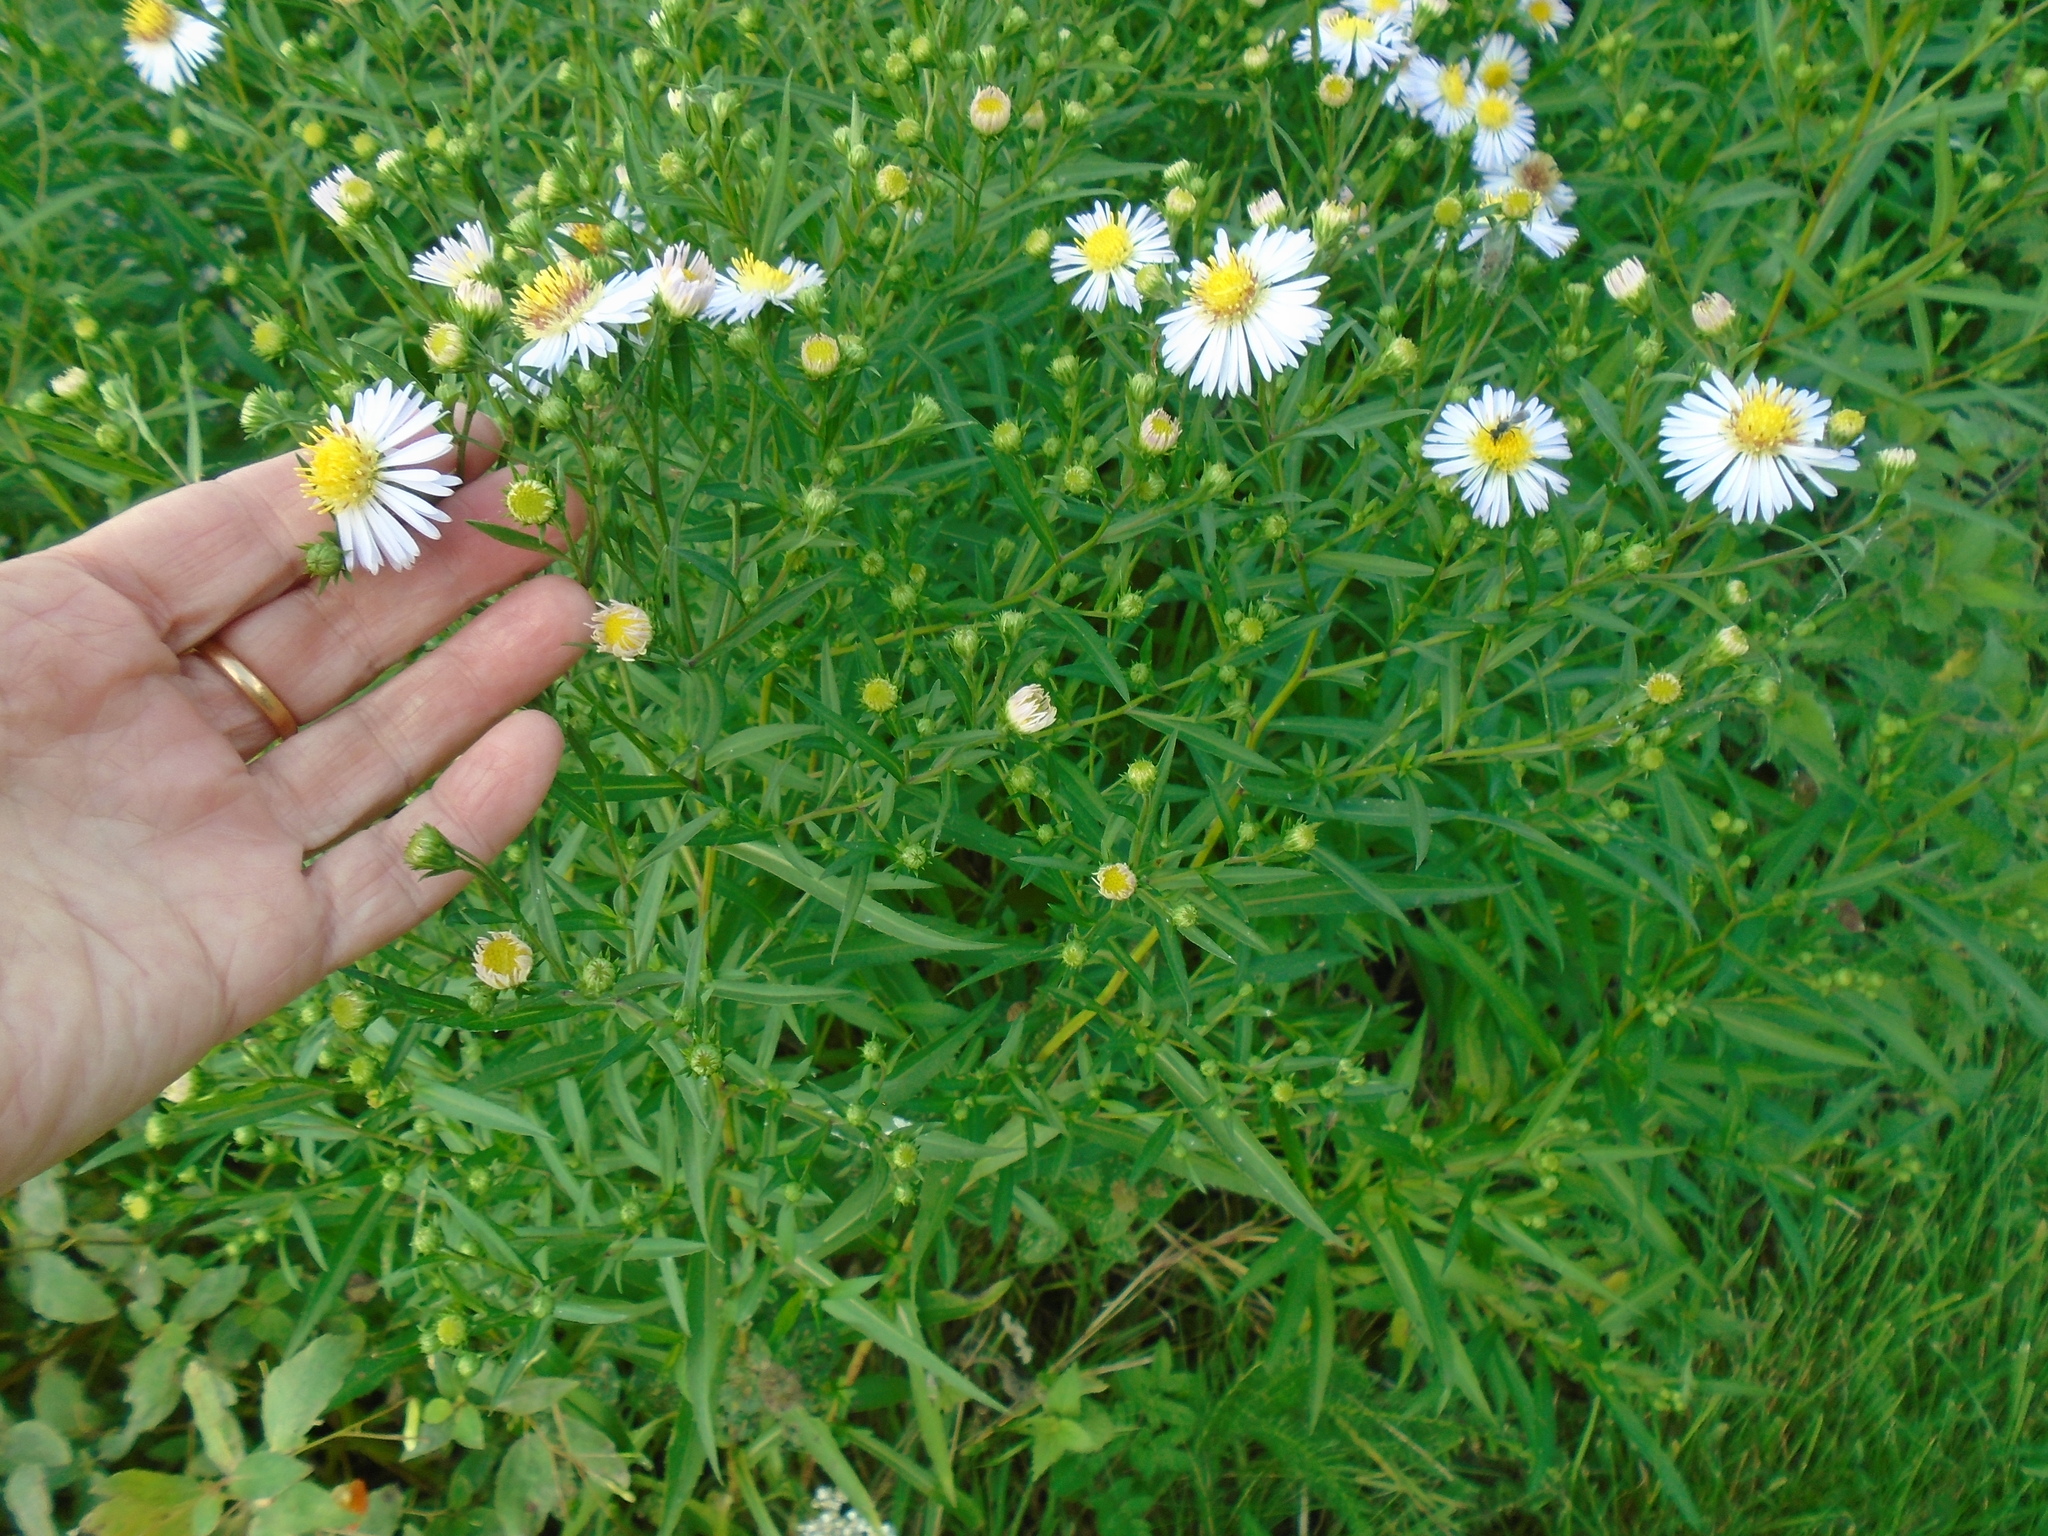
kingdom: Plantae
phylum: Tracheophyta
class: Magnoliopsida
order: Asterales
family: Asteraceae
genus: Symphyotrichum
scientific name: Symphyotrichum novi-belgii
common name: Michaelmas daisy
